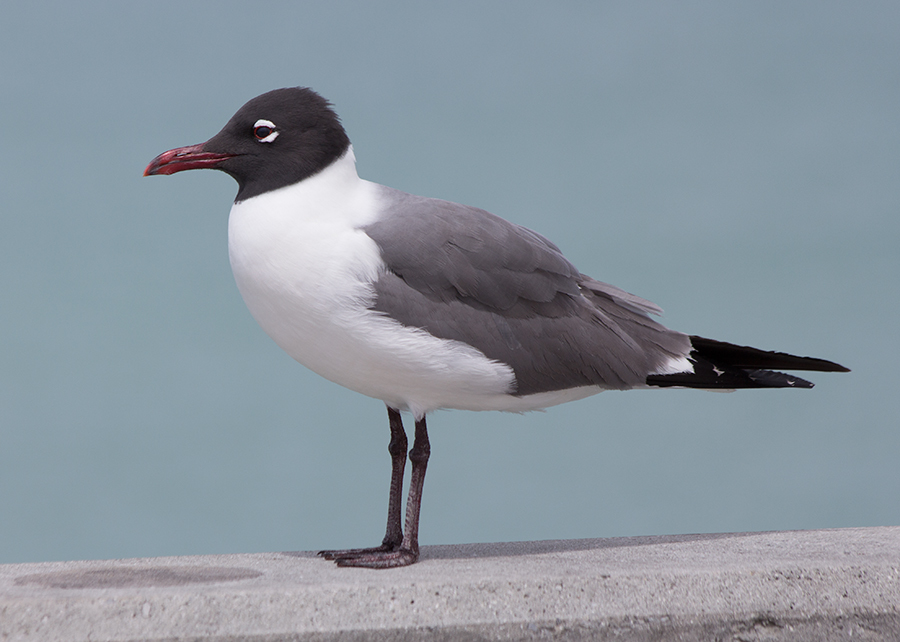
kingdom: Animalia
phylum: Chordata
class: Aves
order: Charadriiformes
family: Laridae
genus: Leucophaeus
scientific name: Leucophaeus atricilla
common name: Laughing gull
